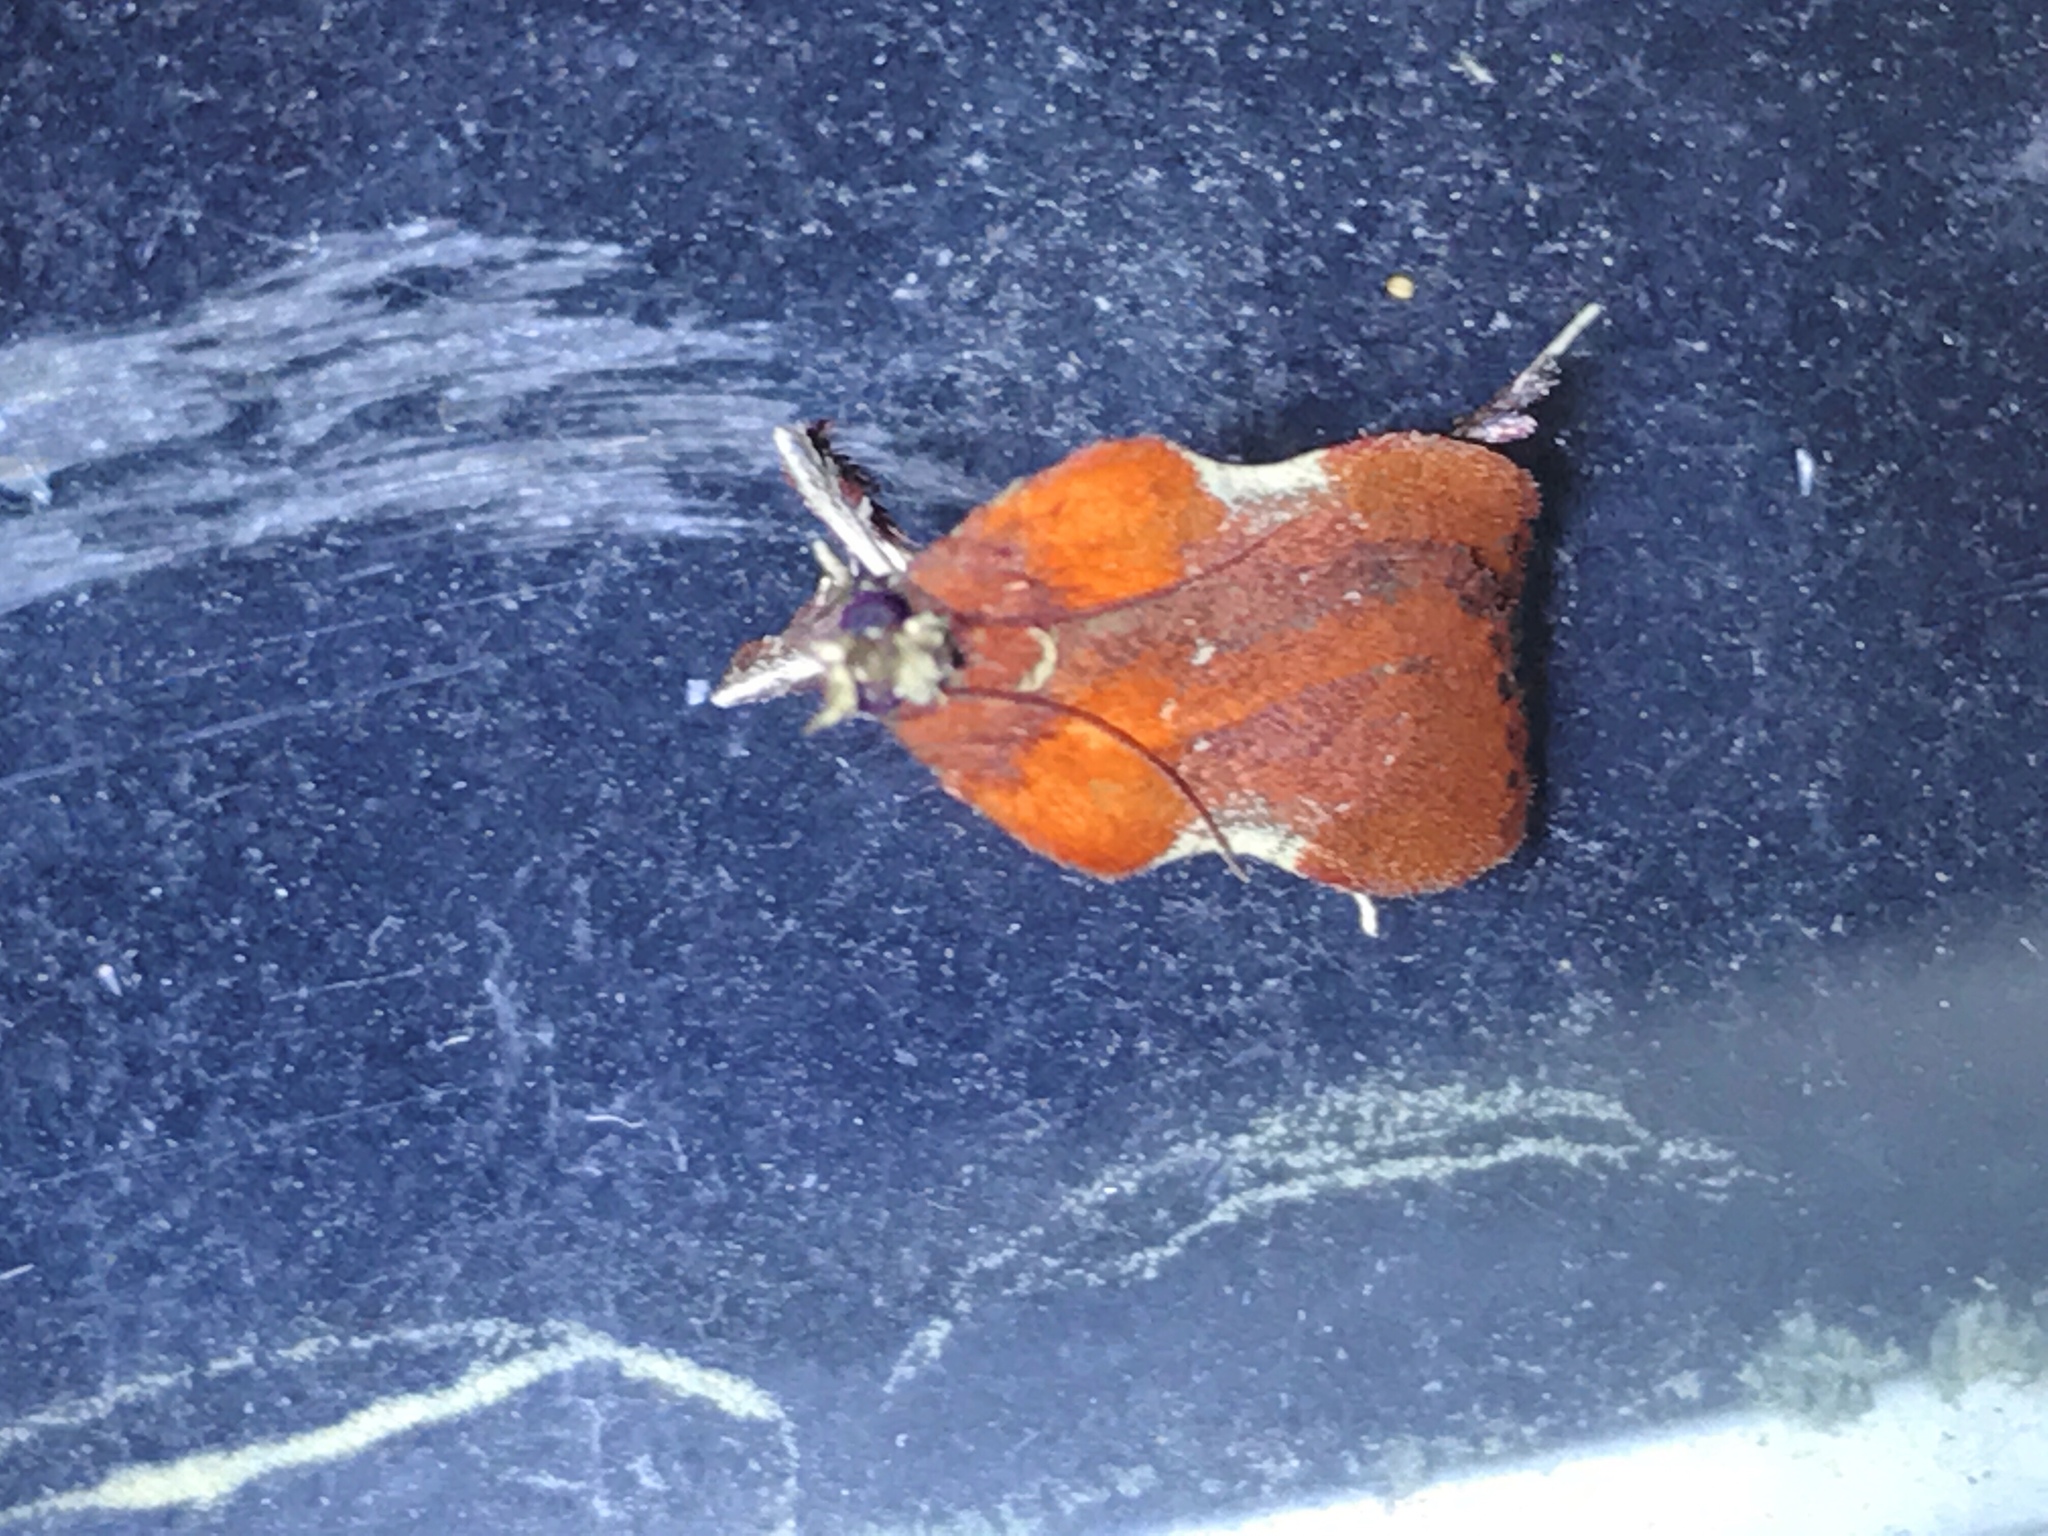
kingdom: Animalia
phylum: Arthropoda
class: Insecta
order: Lepidoptera
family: Pyralidae
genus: Galasa
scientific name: Galasa nigrinodis
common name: Boxwood leaftier moth
